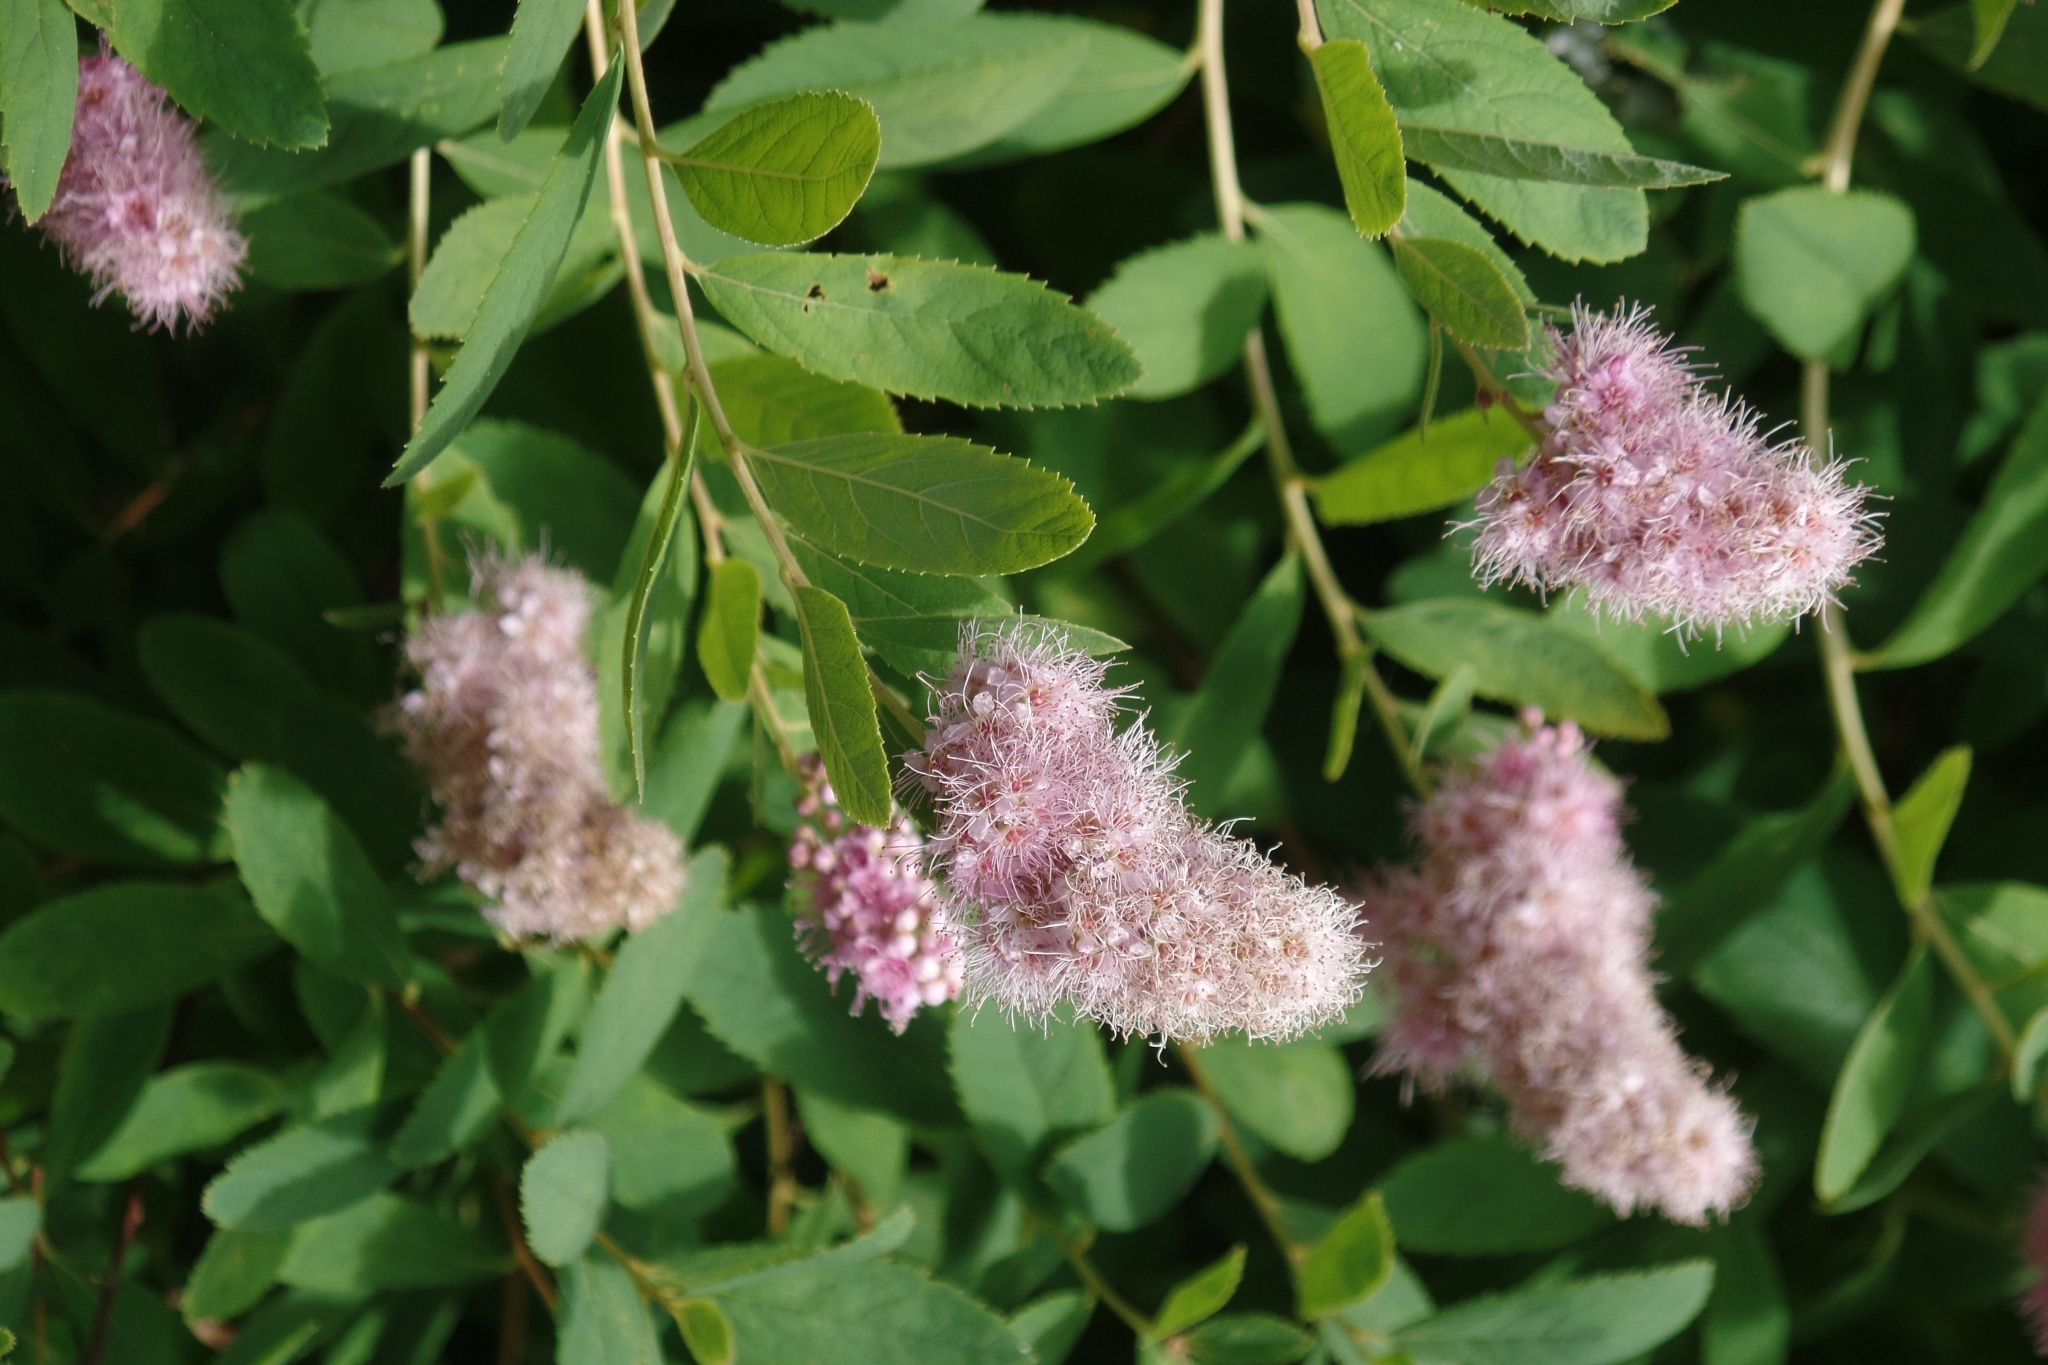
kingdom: Plantae
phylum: Tracheophyta
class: Magnoliopsida
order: Rosales
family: Rosaceae
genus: Spiraea
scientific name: Spiraea douglasii
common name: Steeplebush
